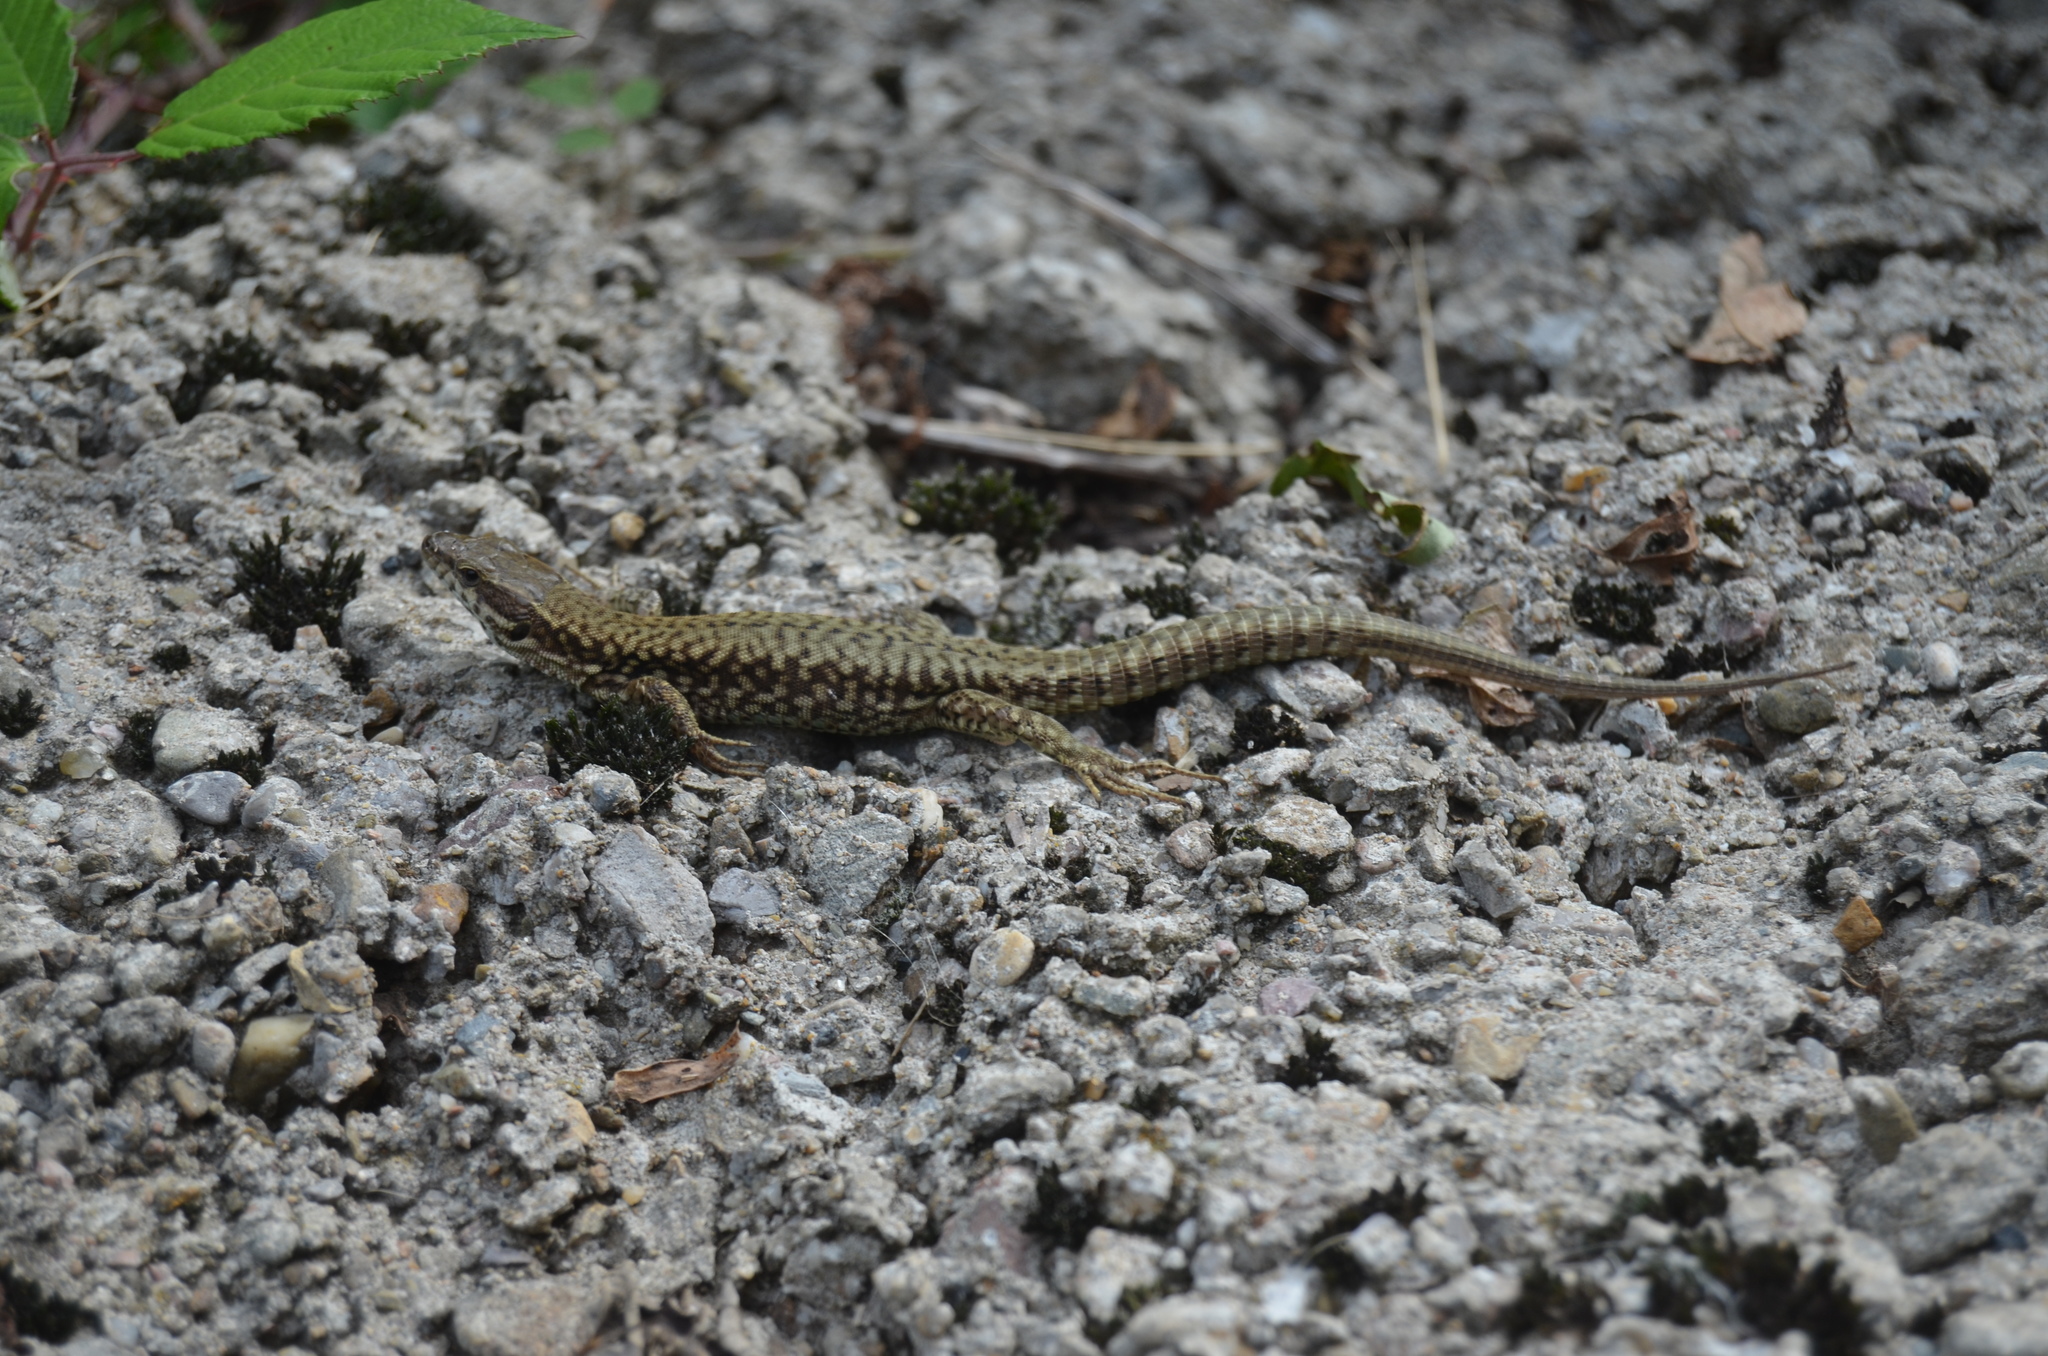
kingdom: Animalia
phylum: Chordata
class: Squamata
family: Lacertidae
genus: Podarcis
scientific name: Podarcis muralis
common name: Common wall lizard
